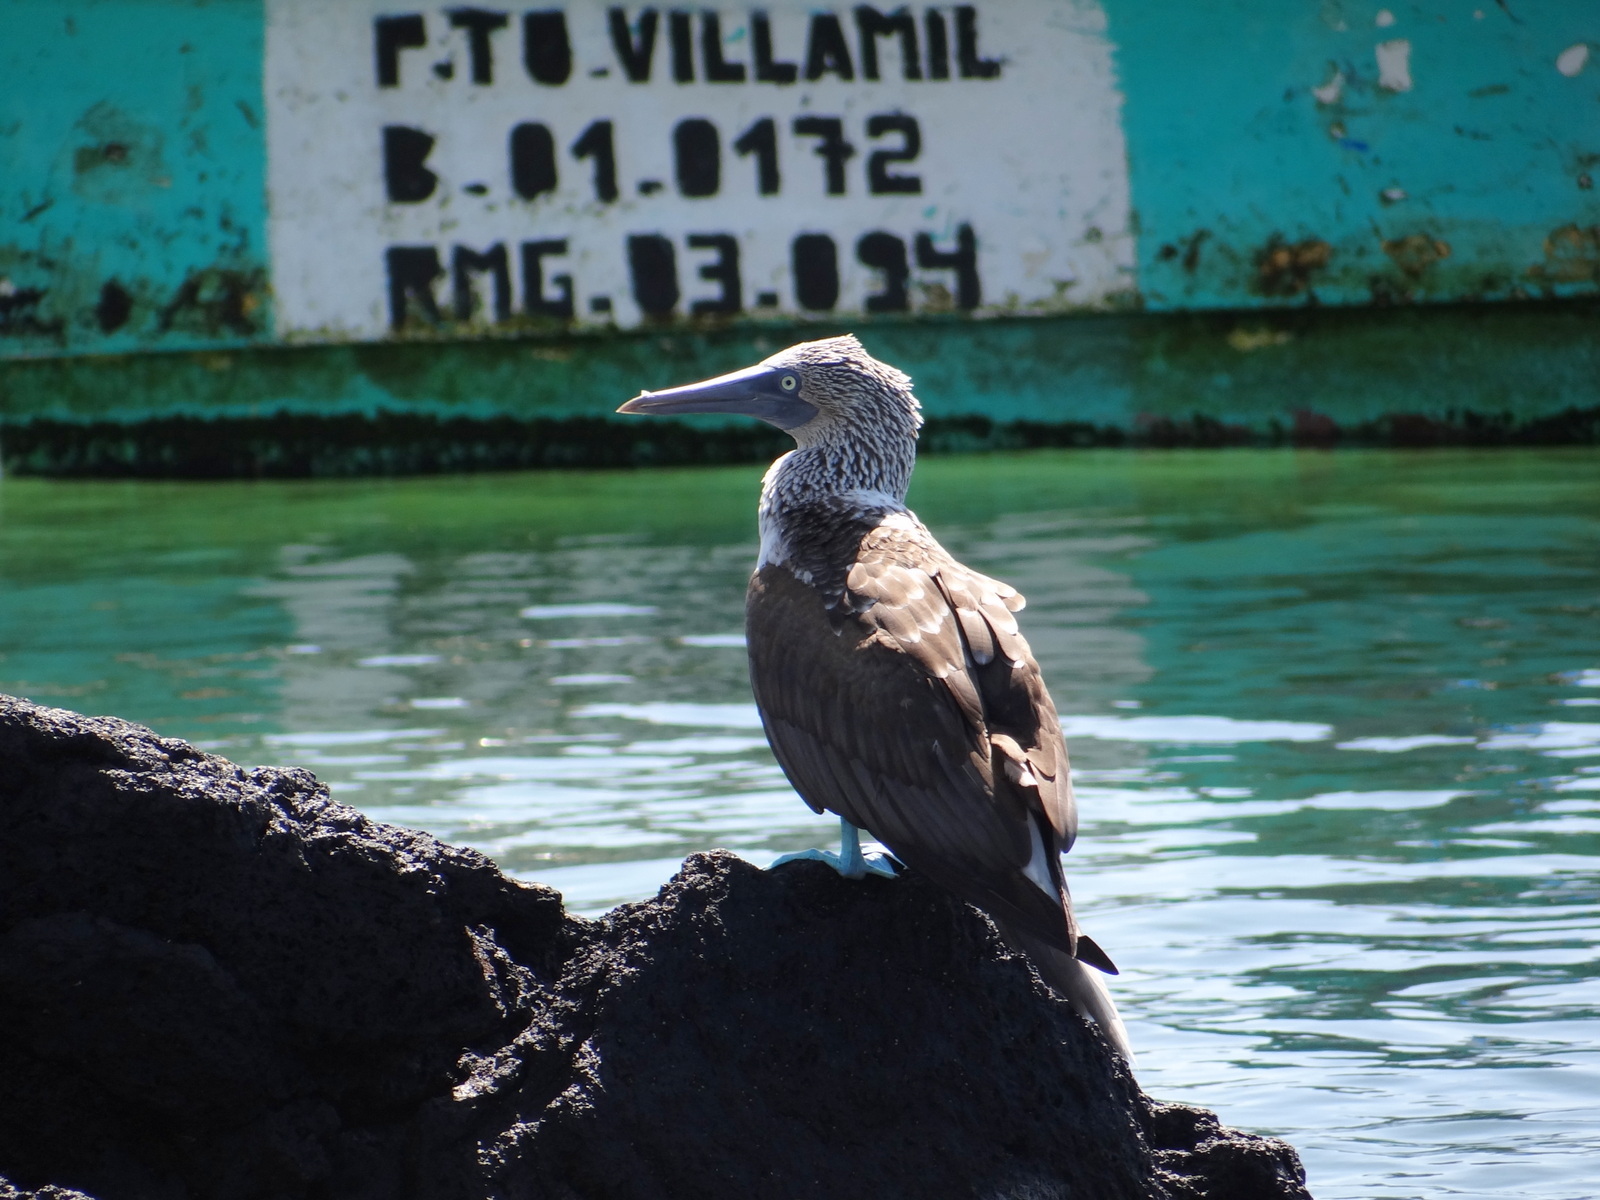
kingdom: Animalia
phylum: Chordata
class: Aves
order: Suliformes
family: Sulidae
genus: Sula
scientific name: Sula nebouxii
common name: Blue-footed booby
